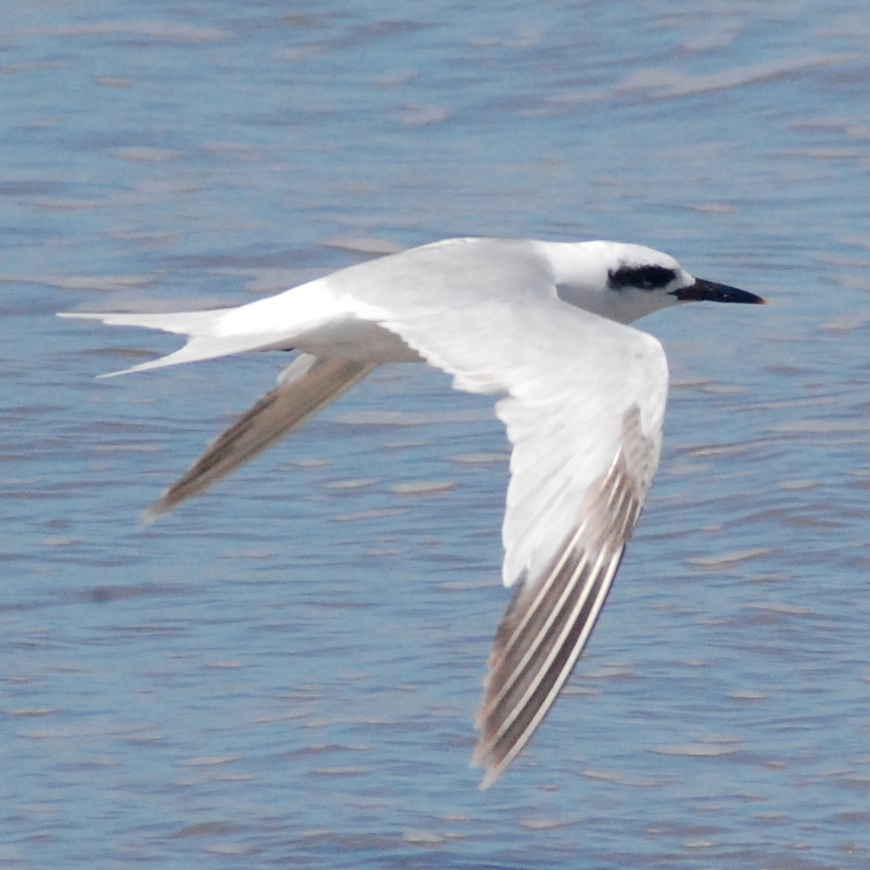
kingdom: Animalia
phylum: Chordata
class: Aves
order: Charadriiformes
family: Laridae
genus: Sterna
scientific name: Sterna trudeaui
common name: Snowy-crowned tern
